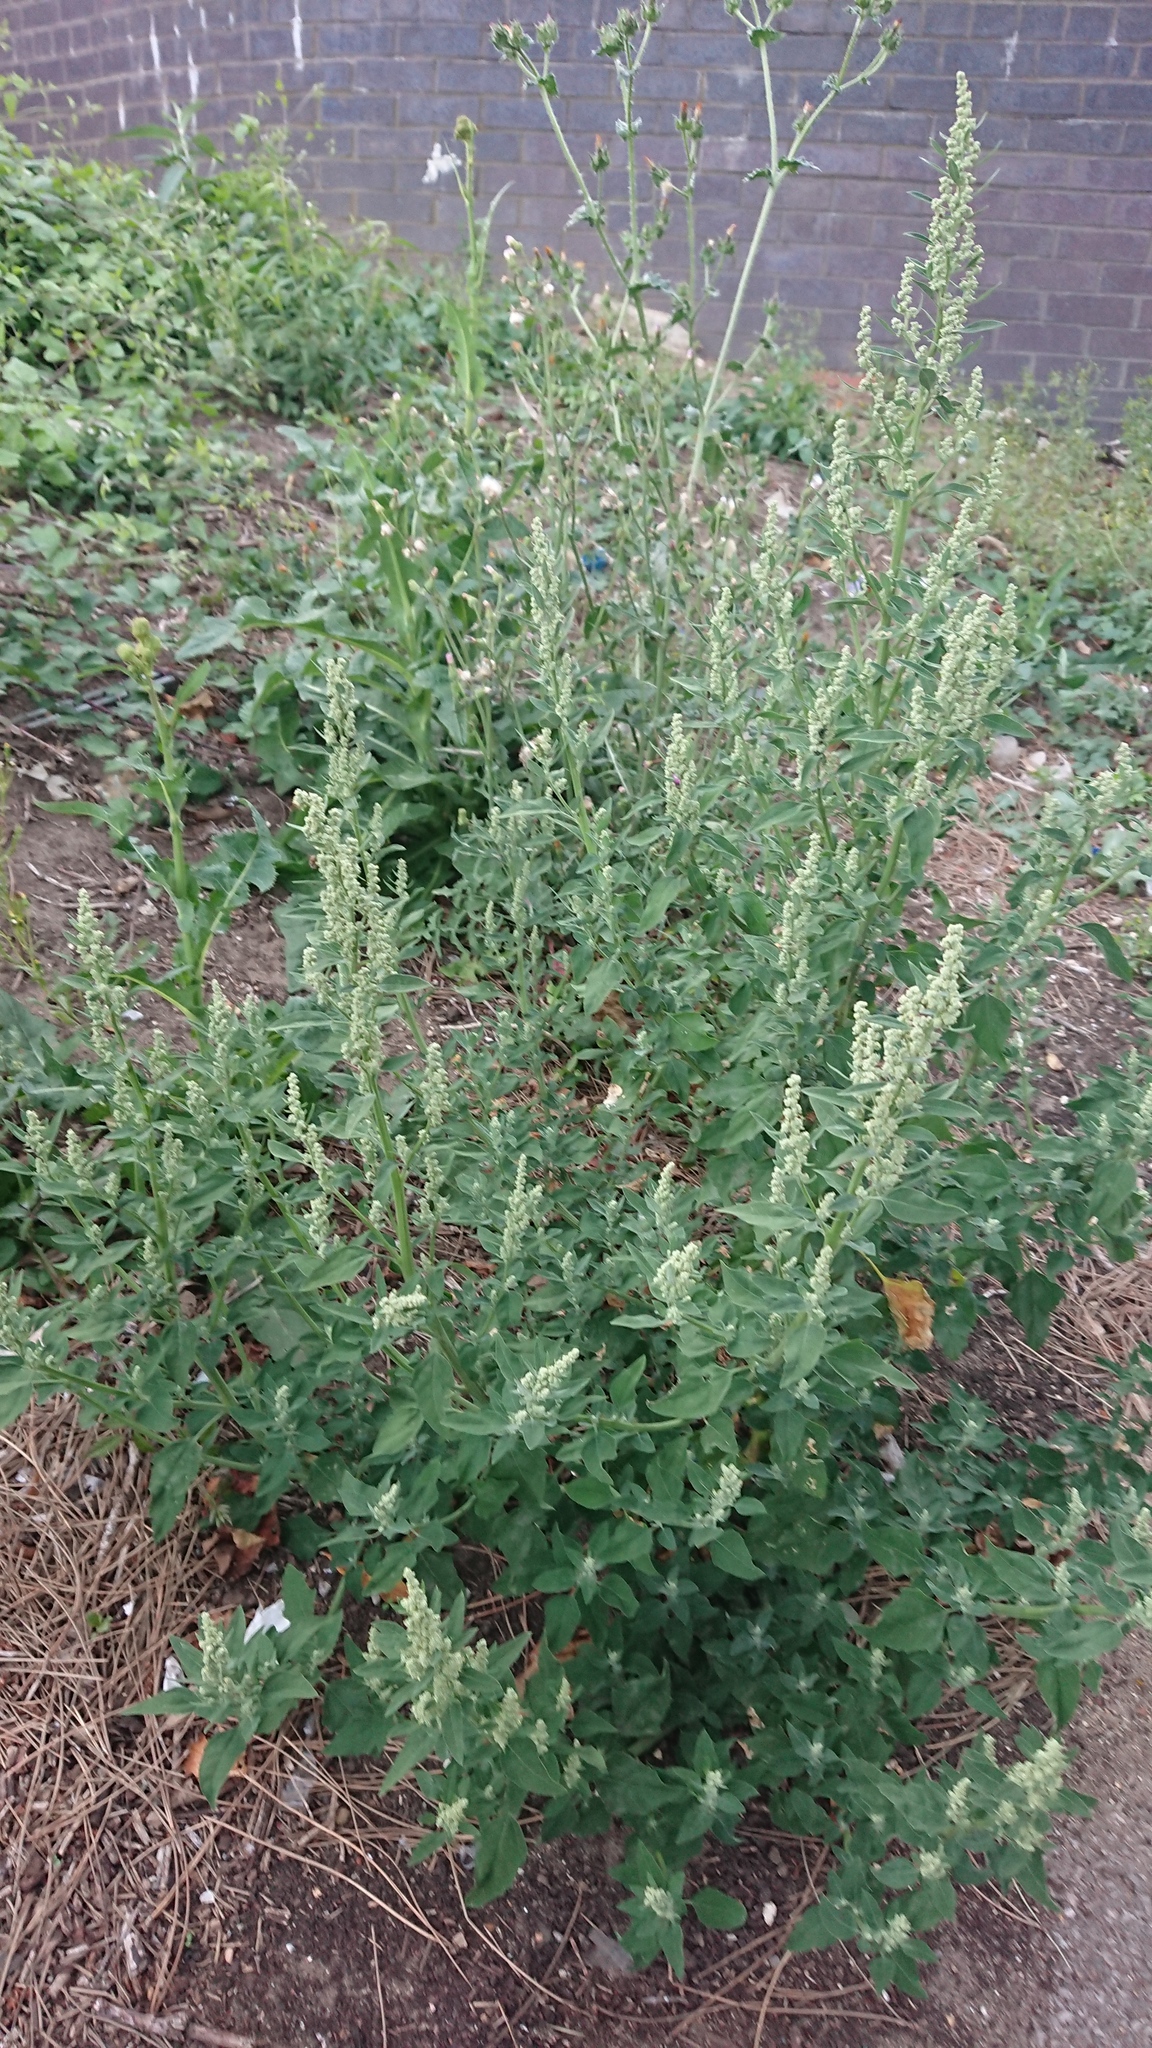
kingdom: Plantae
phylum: Tracheophyta
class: Magnoliopsida
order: Caryophyllales
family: Amaranthaceae
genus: Chenopodium
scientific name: Chenopodium album
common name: Fat-hen
